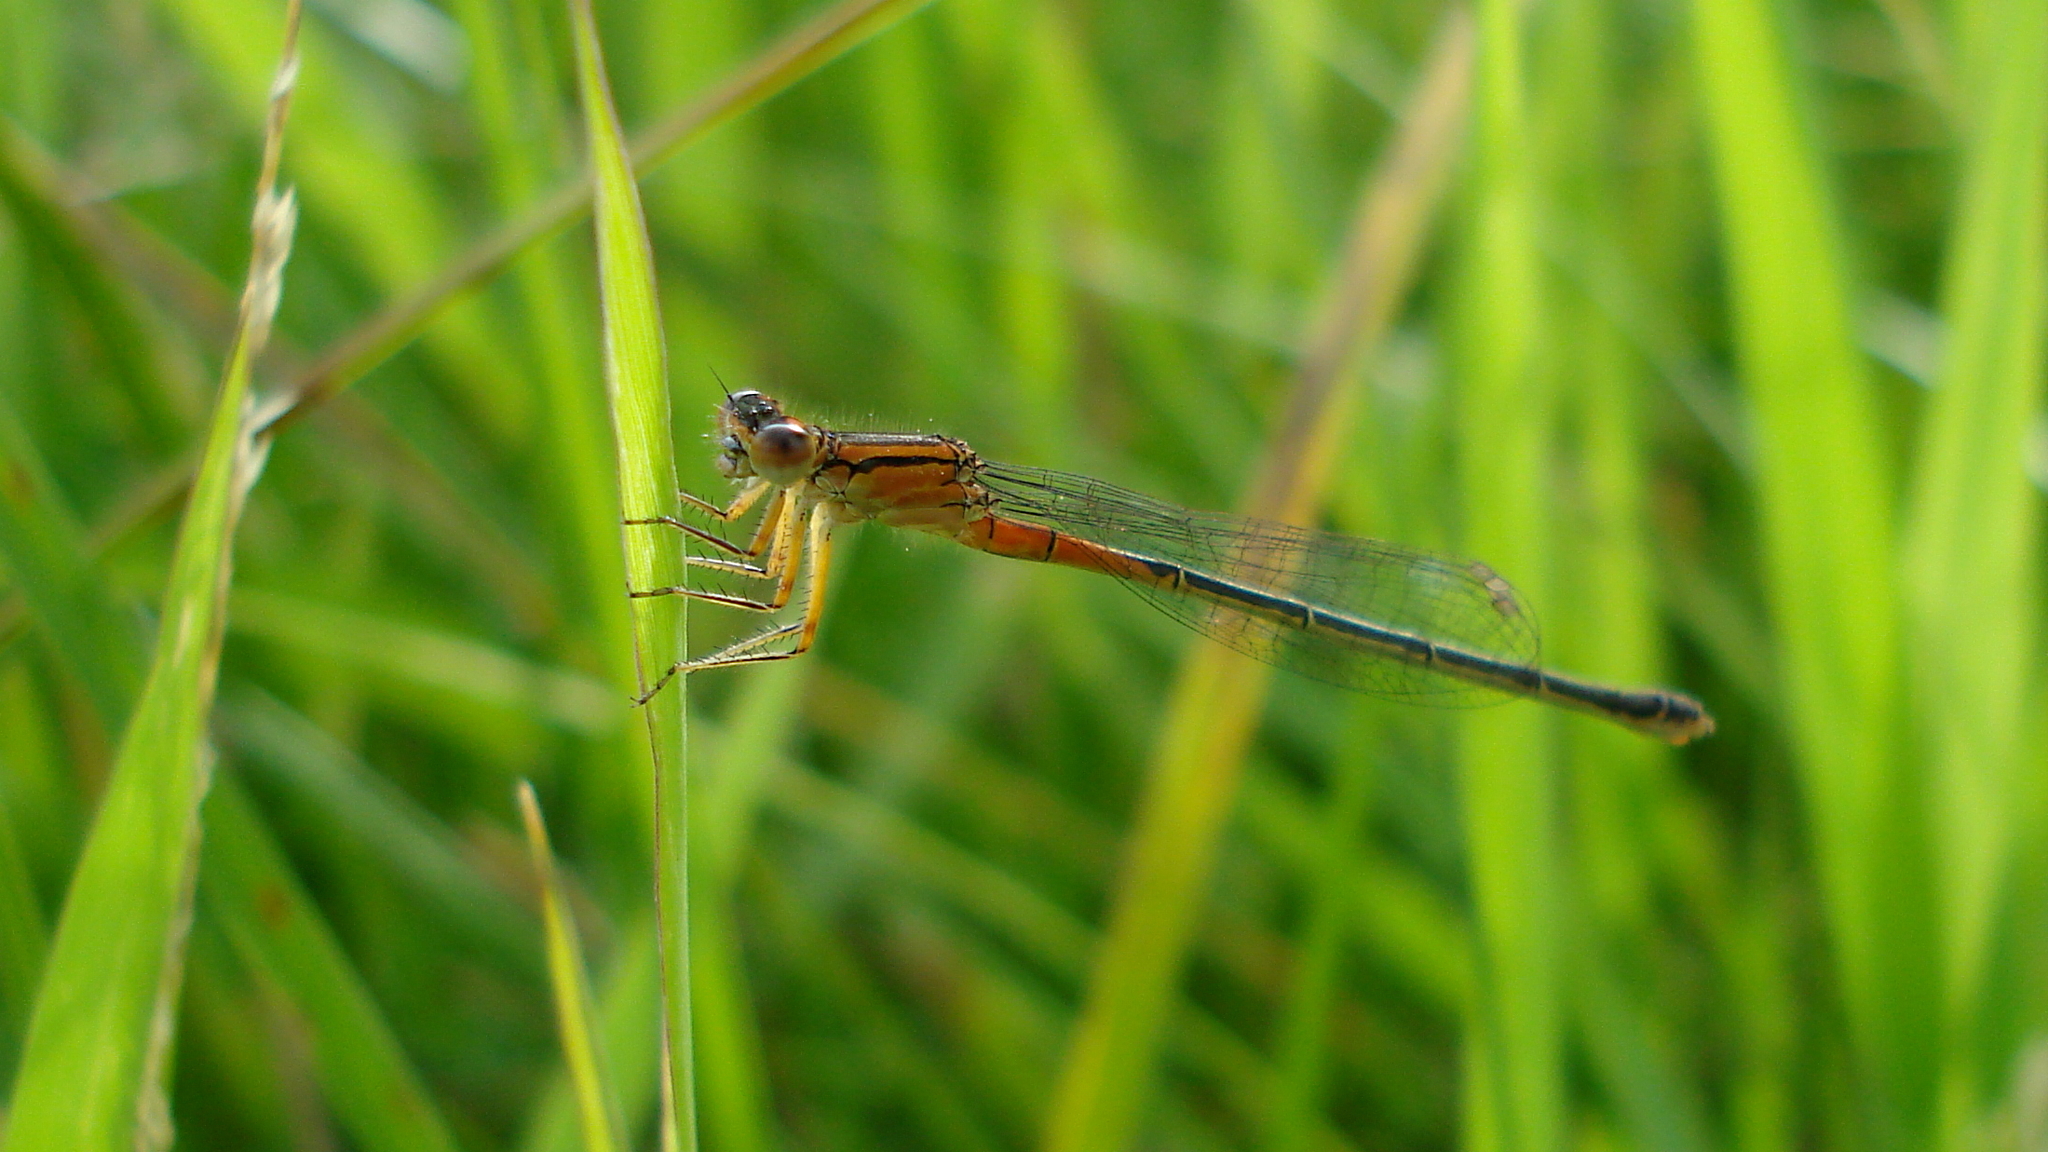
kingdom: Animalia
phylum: Arthropoda
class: Insecta
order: Odonata
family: Coenagrionidae
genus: Ischnura
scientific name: Ischnura verticalis
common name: Eastern forktail
